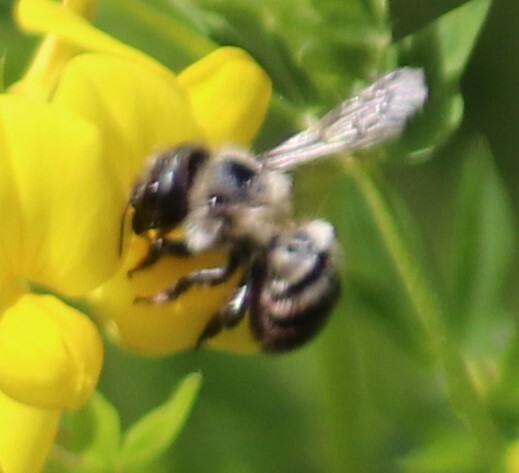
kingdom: Animalia
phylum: Arthropoda
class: Insecta
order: Hymenoptera
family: Megachilidae
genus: Osmia
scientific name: Osmia bucephala
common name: Bufflehead mason bee
